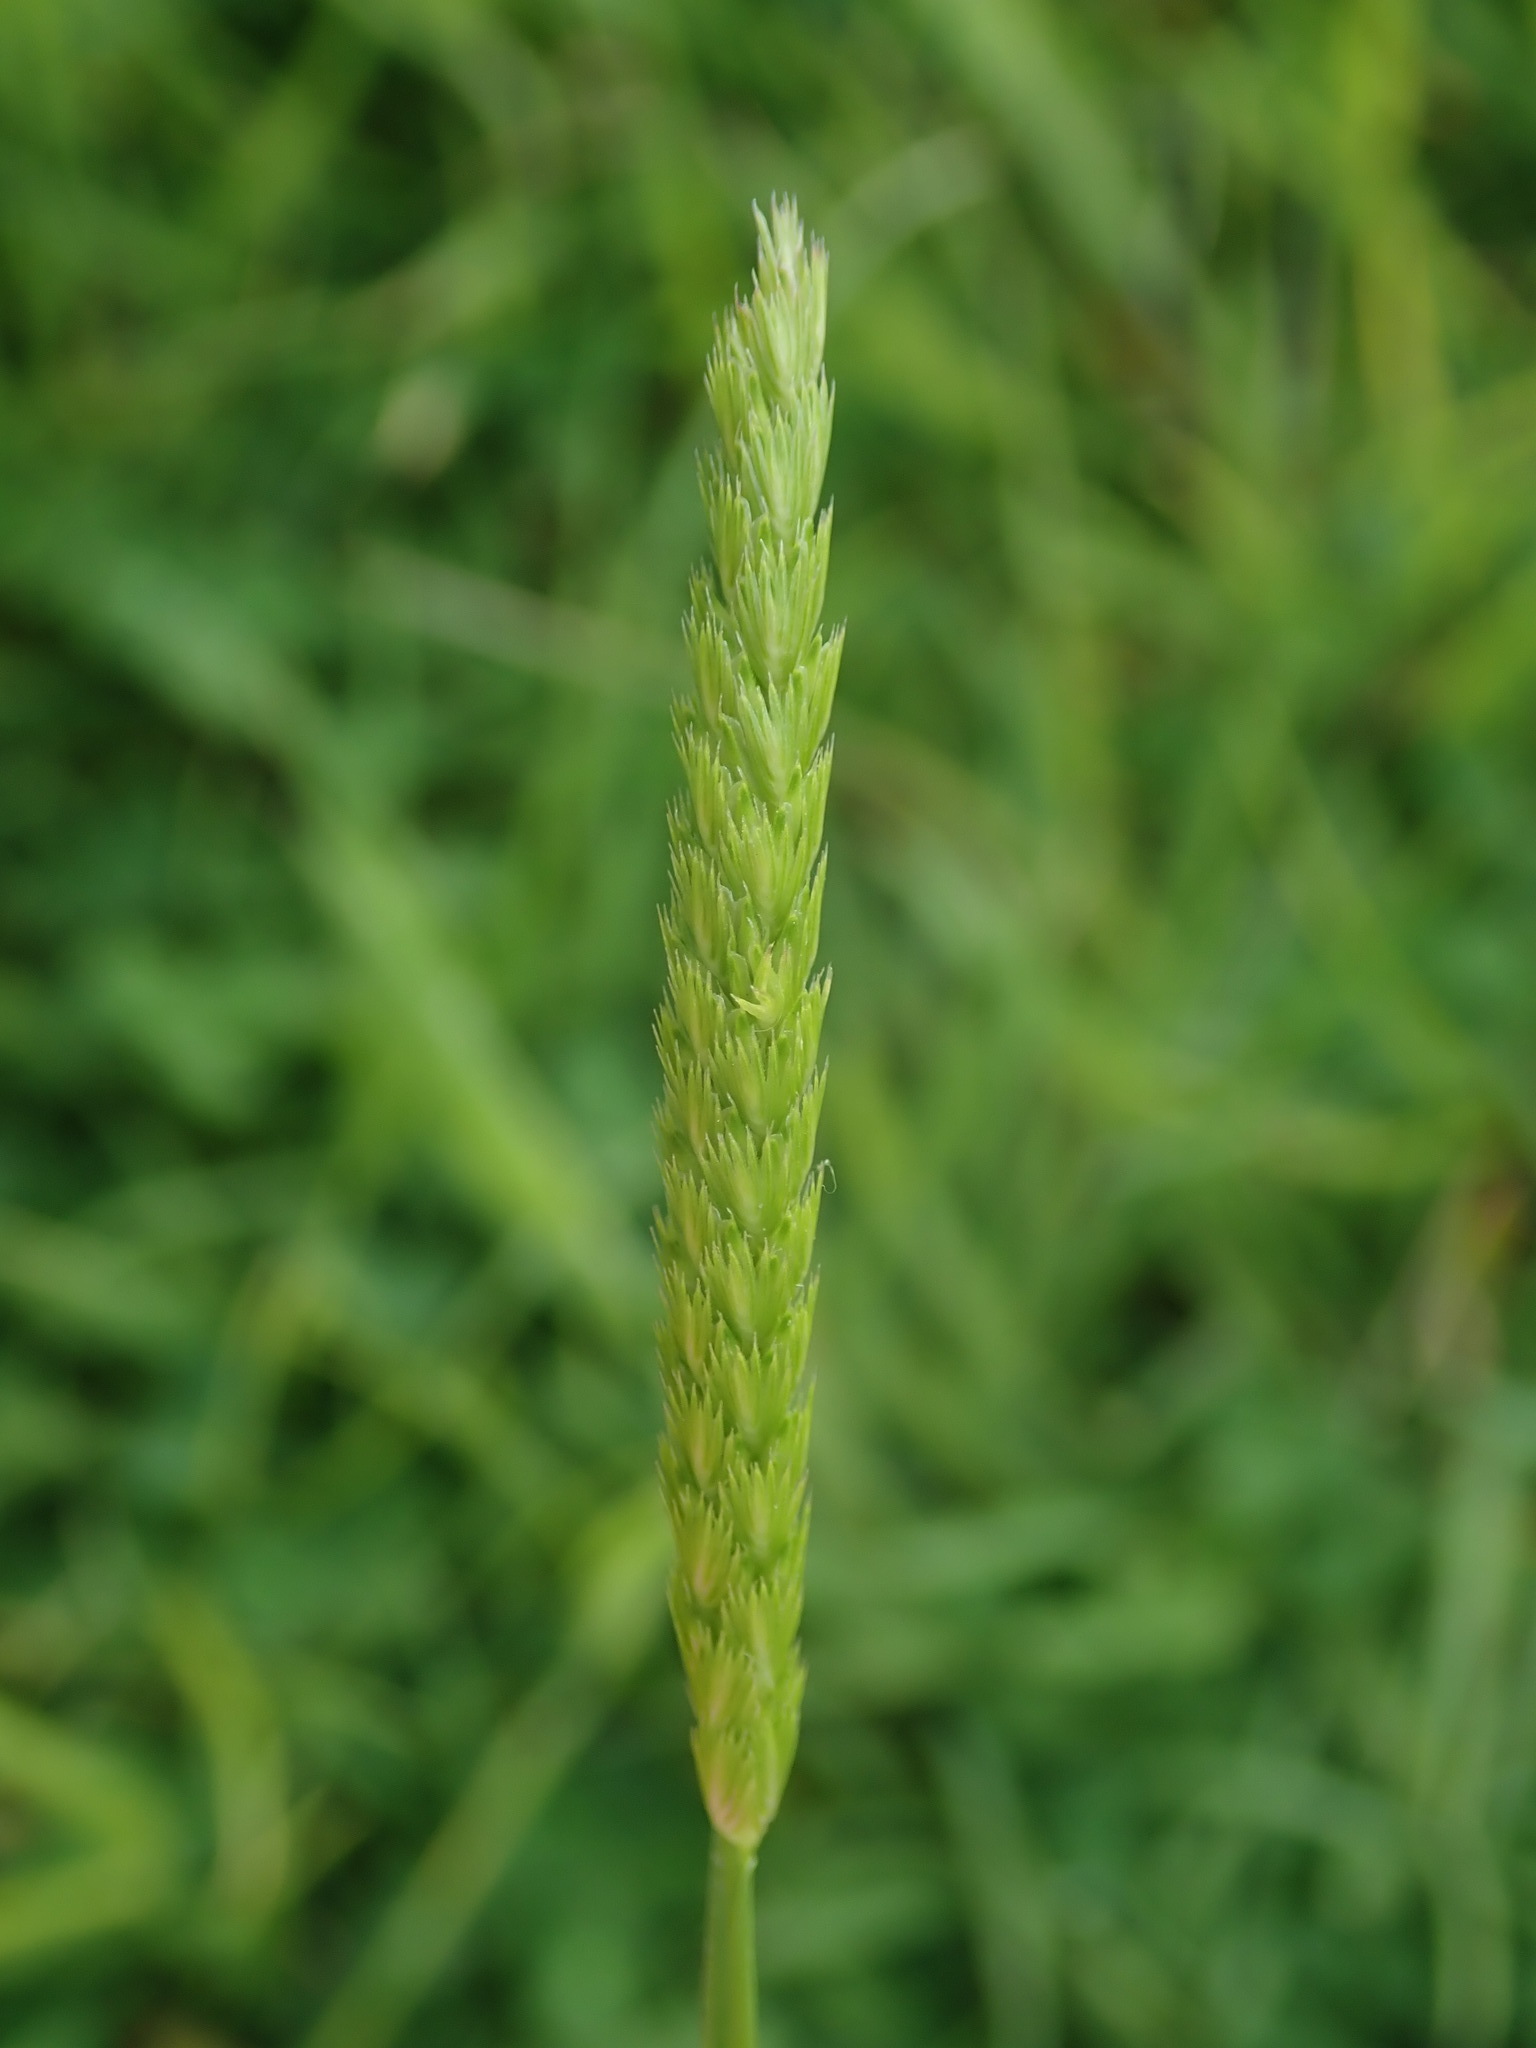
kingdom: Plantae
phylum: Tracheophyta
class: Liliopsida
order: Poales
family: Poaceae
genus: Cynosurus
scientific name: Cynosurus cristatus
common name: Crested dog's-tail
